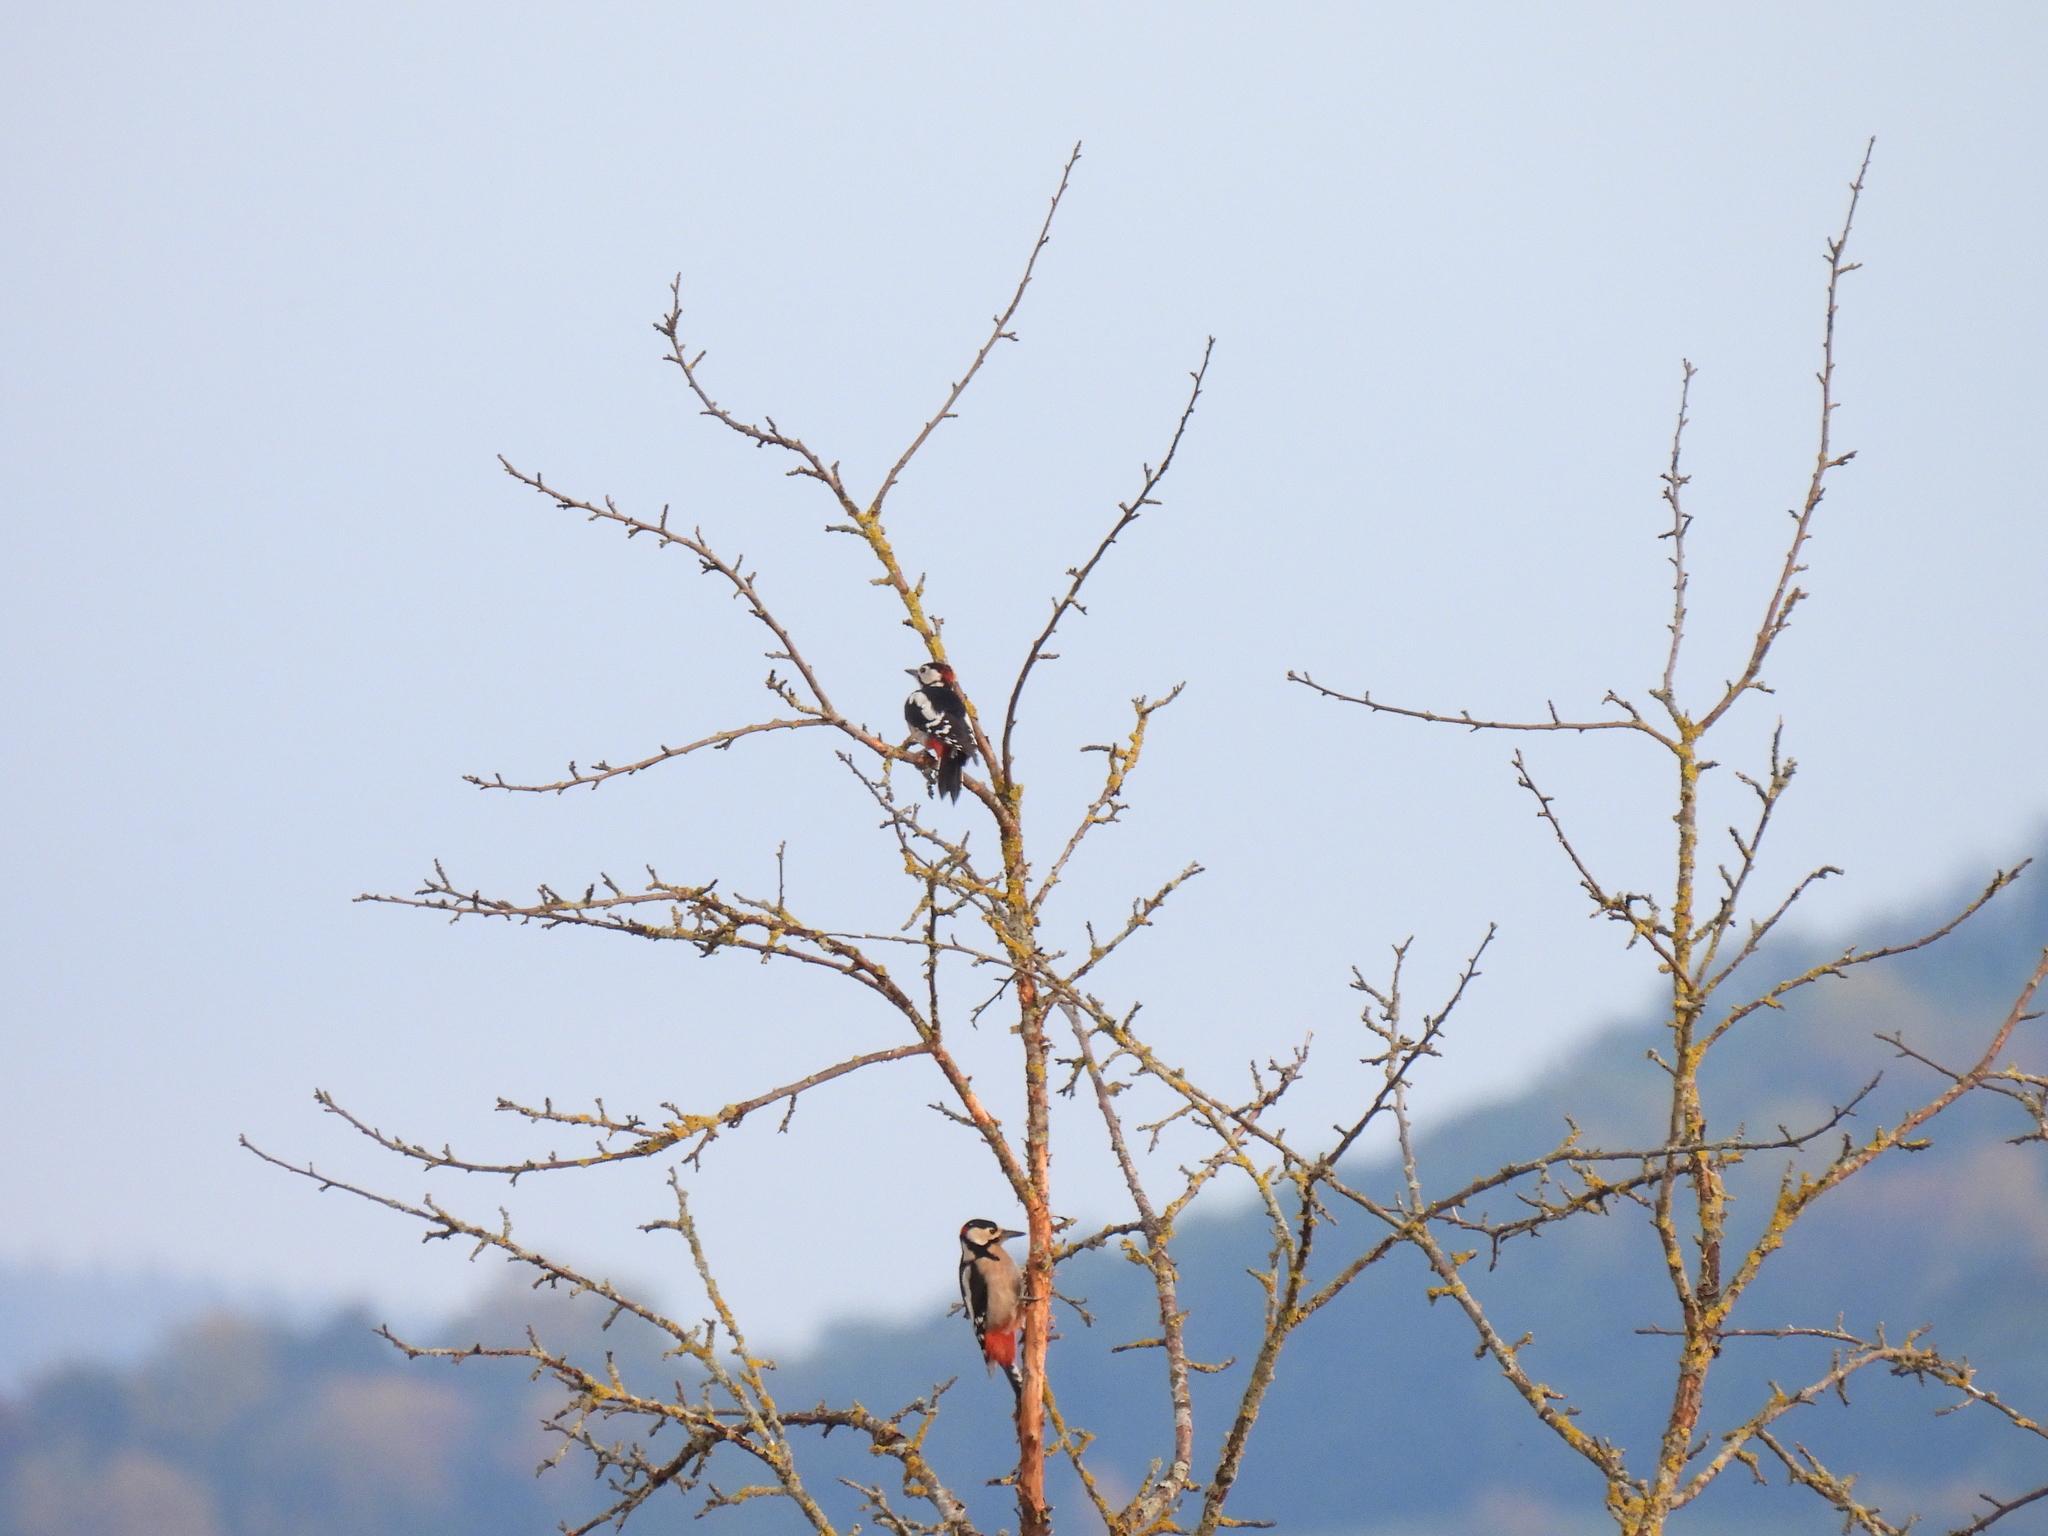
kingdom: Animalia
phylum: Chordata
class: Aves
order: Piciformes
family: Picidae
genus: Dendrocopos
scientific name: Dendrocopos major
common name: Great spotted woodpecker
